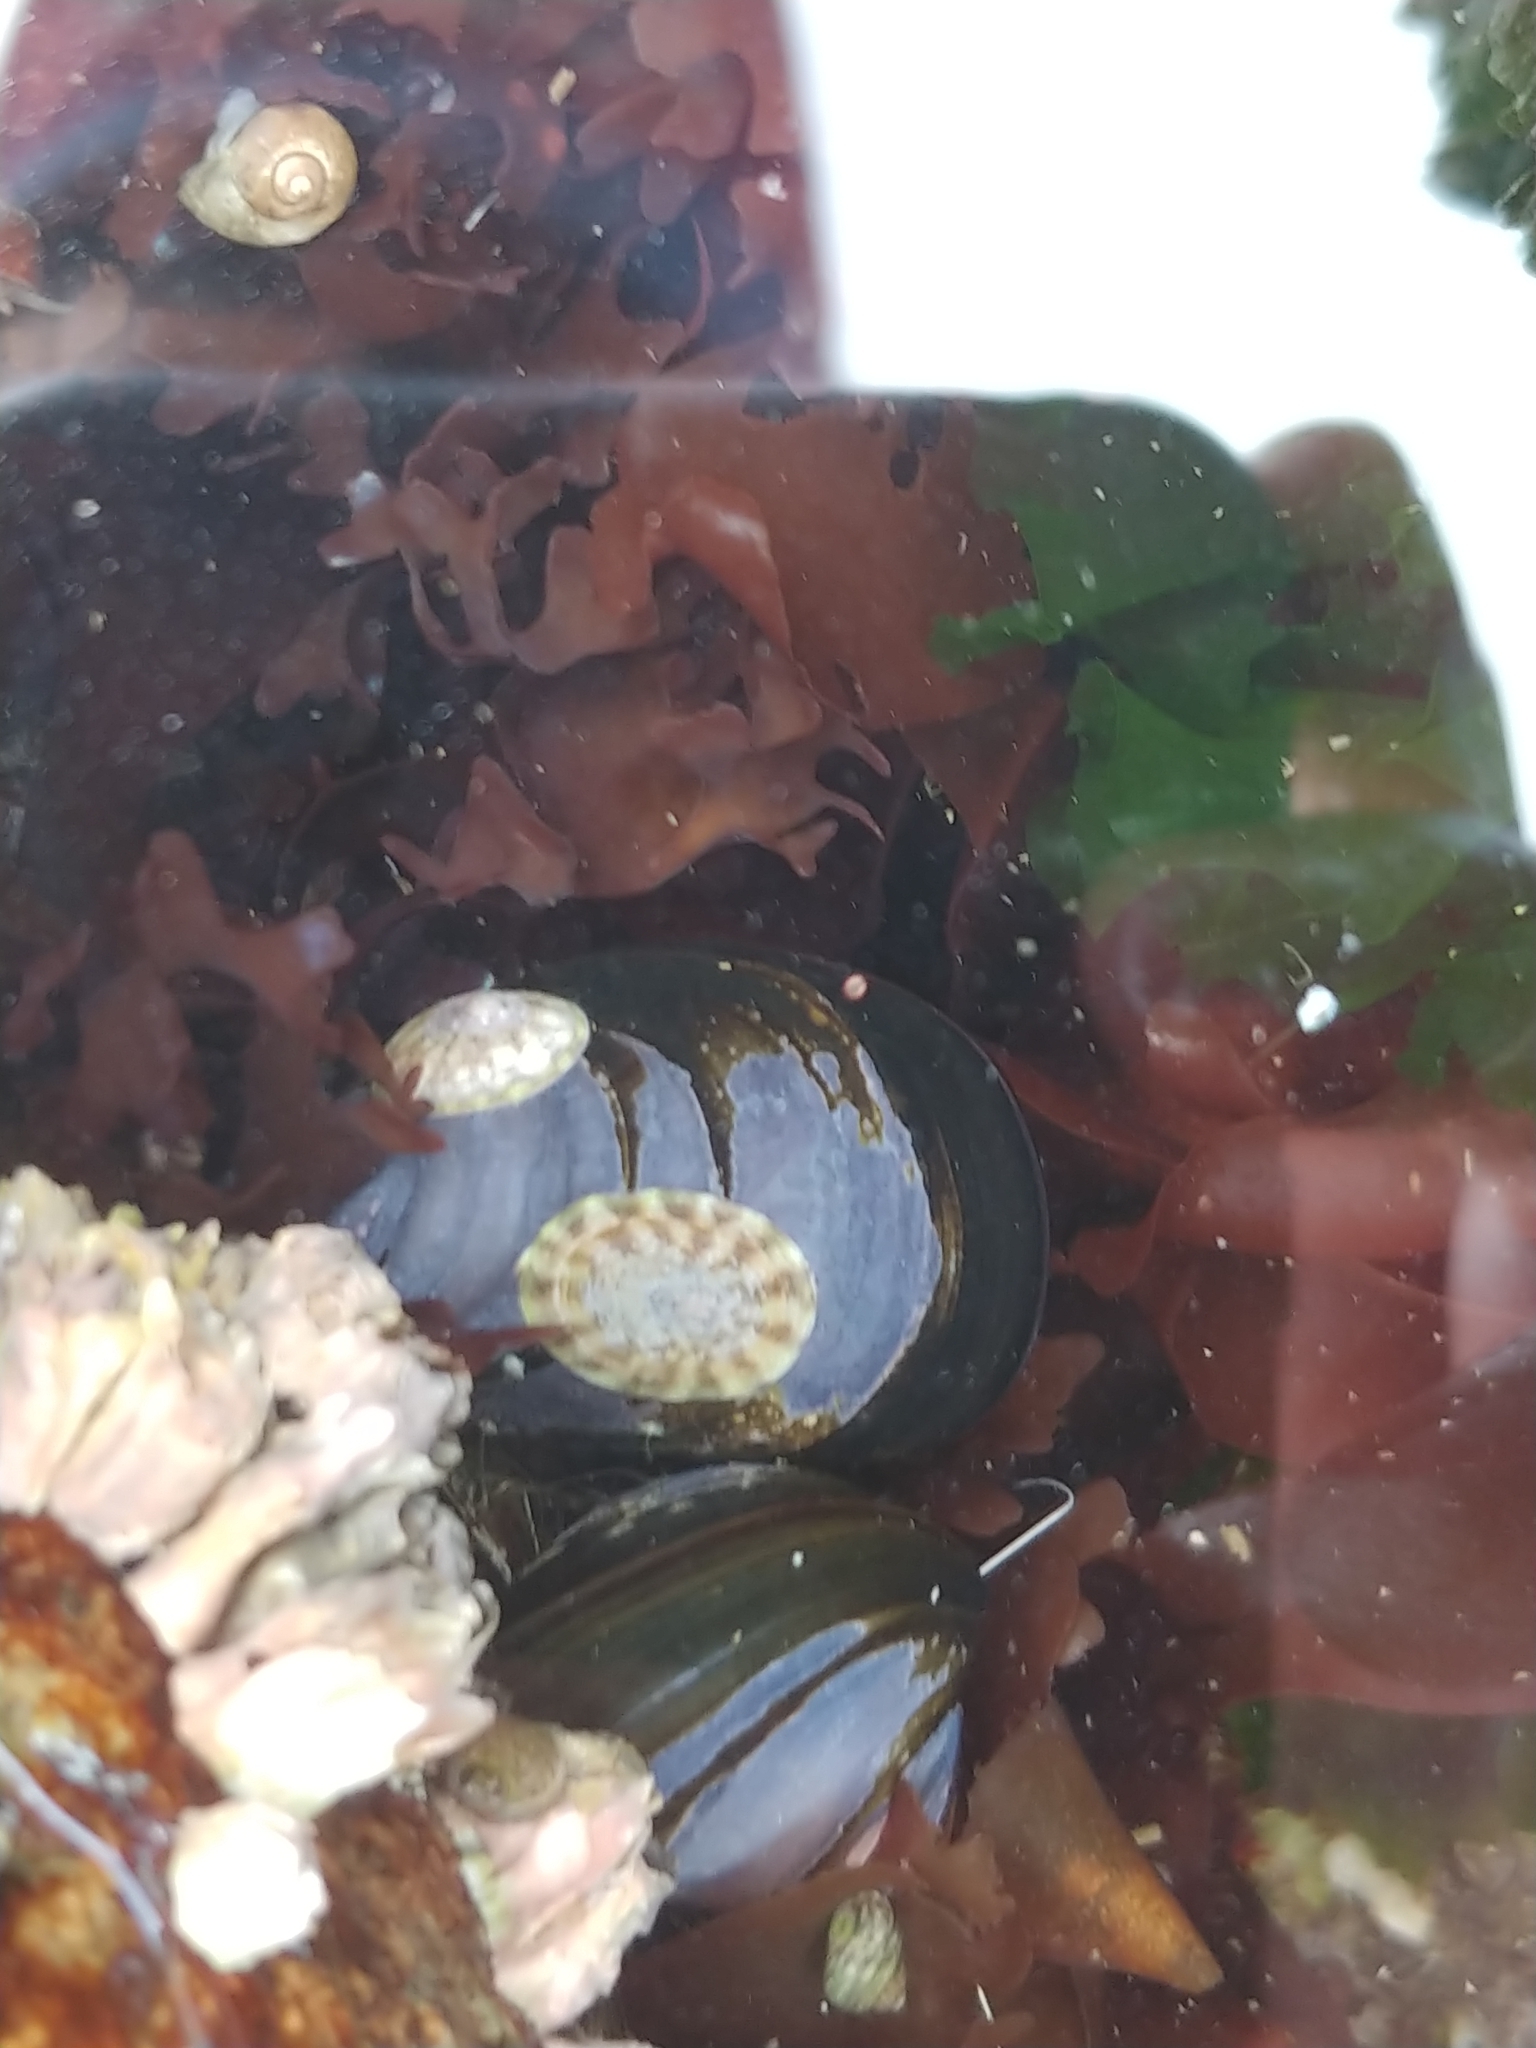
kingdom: Animalia
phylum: Mollusca
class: Gastropoda
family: Lottiidae
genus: Testudinalia
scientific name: Testudinalia testudinalis
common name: Common tortoiseshell limpet
